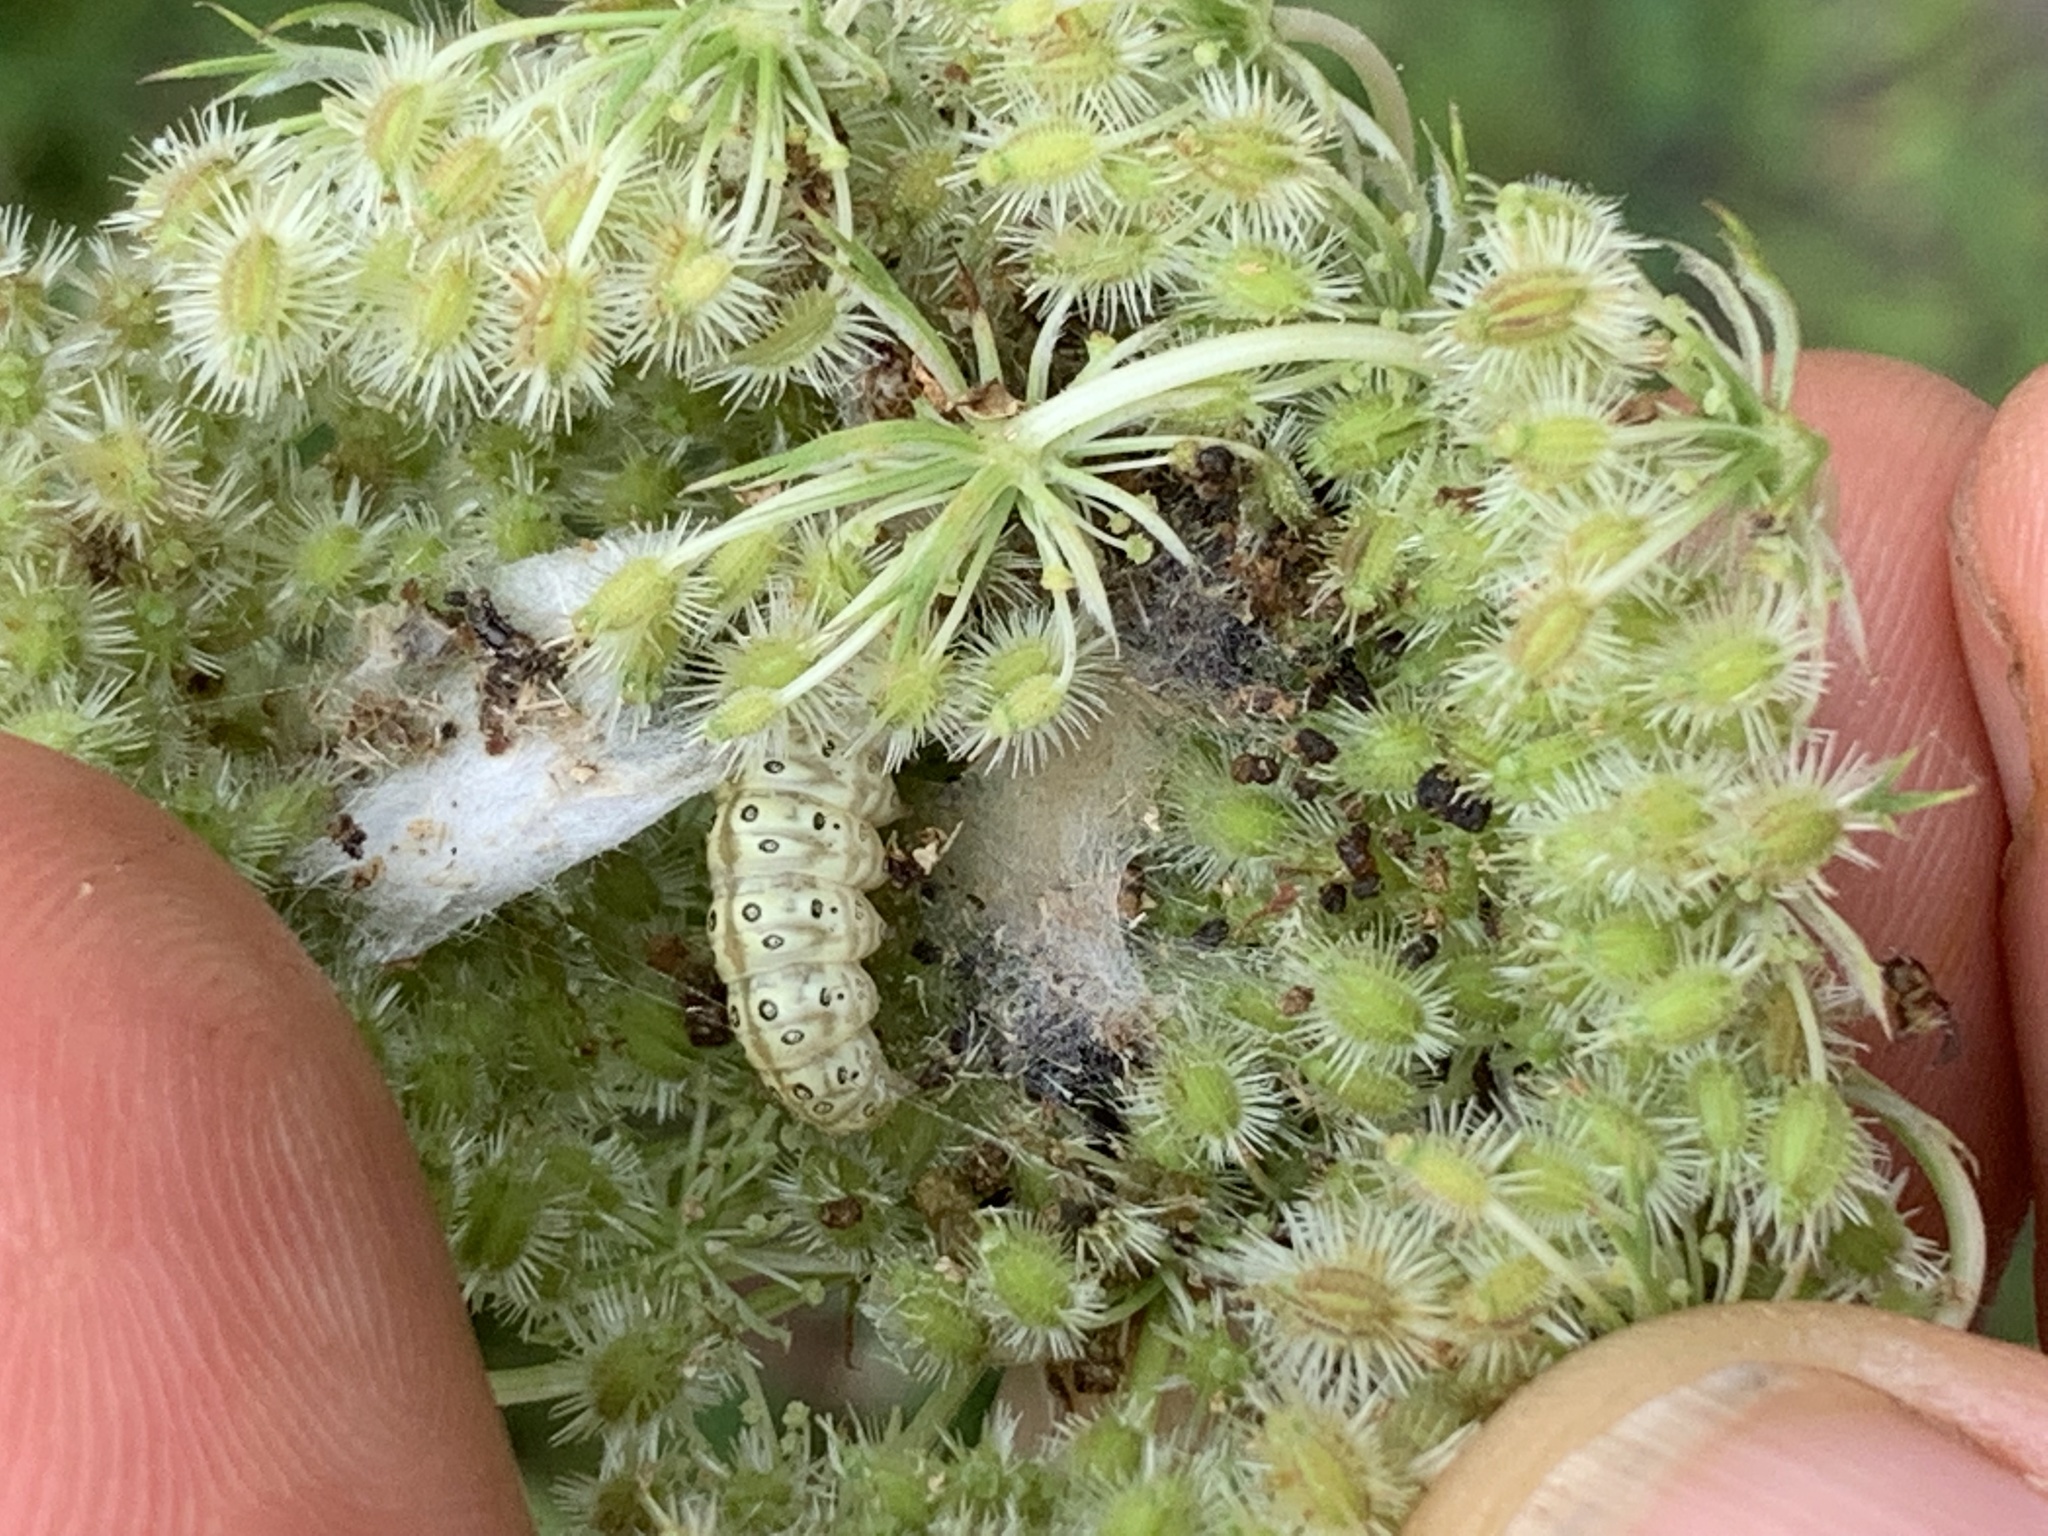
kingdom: Animalia
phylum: Arthropoda
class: Insecta
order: Lepidoptera
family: Crambidae
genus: Sitochroa
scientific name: Sitochroa palealis
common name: Greenish-yellow sitochroa moth
